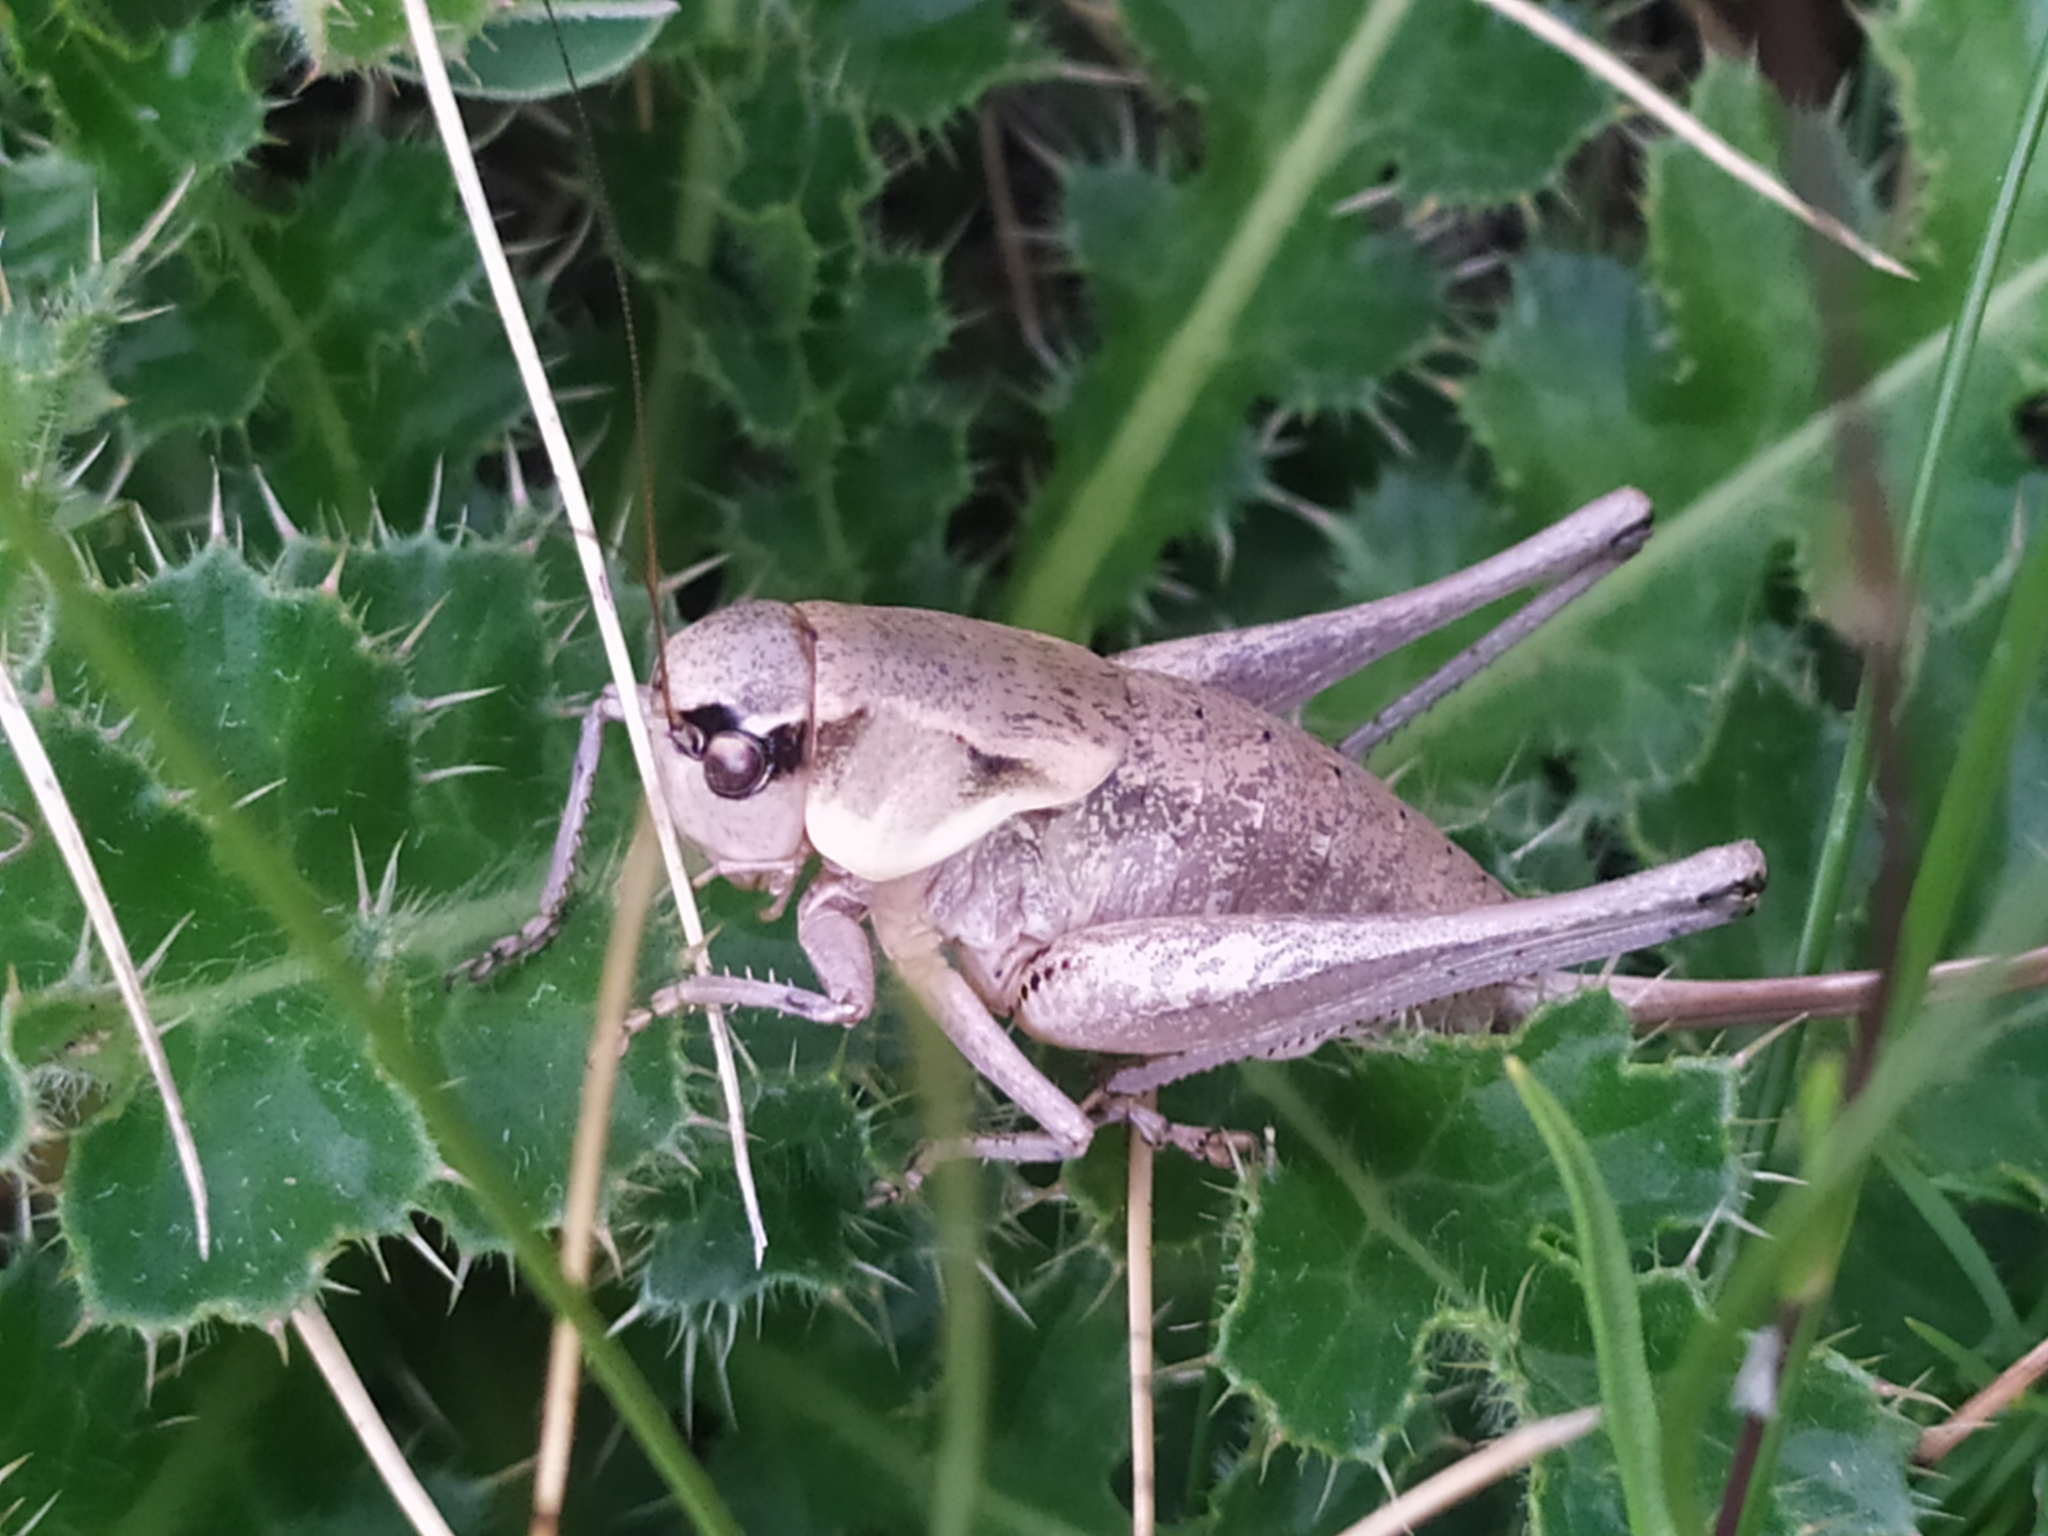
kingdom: Animalia
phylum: Arthropoda
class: Insecta
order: Orthoptera
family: Tettigoniidae
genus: Pholidoptera
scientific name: Pholidoptera dalmatica
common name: Dalmatian dark bush-cricket
